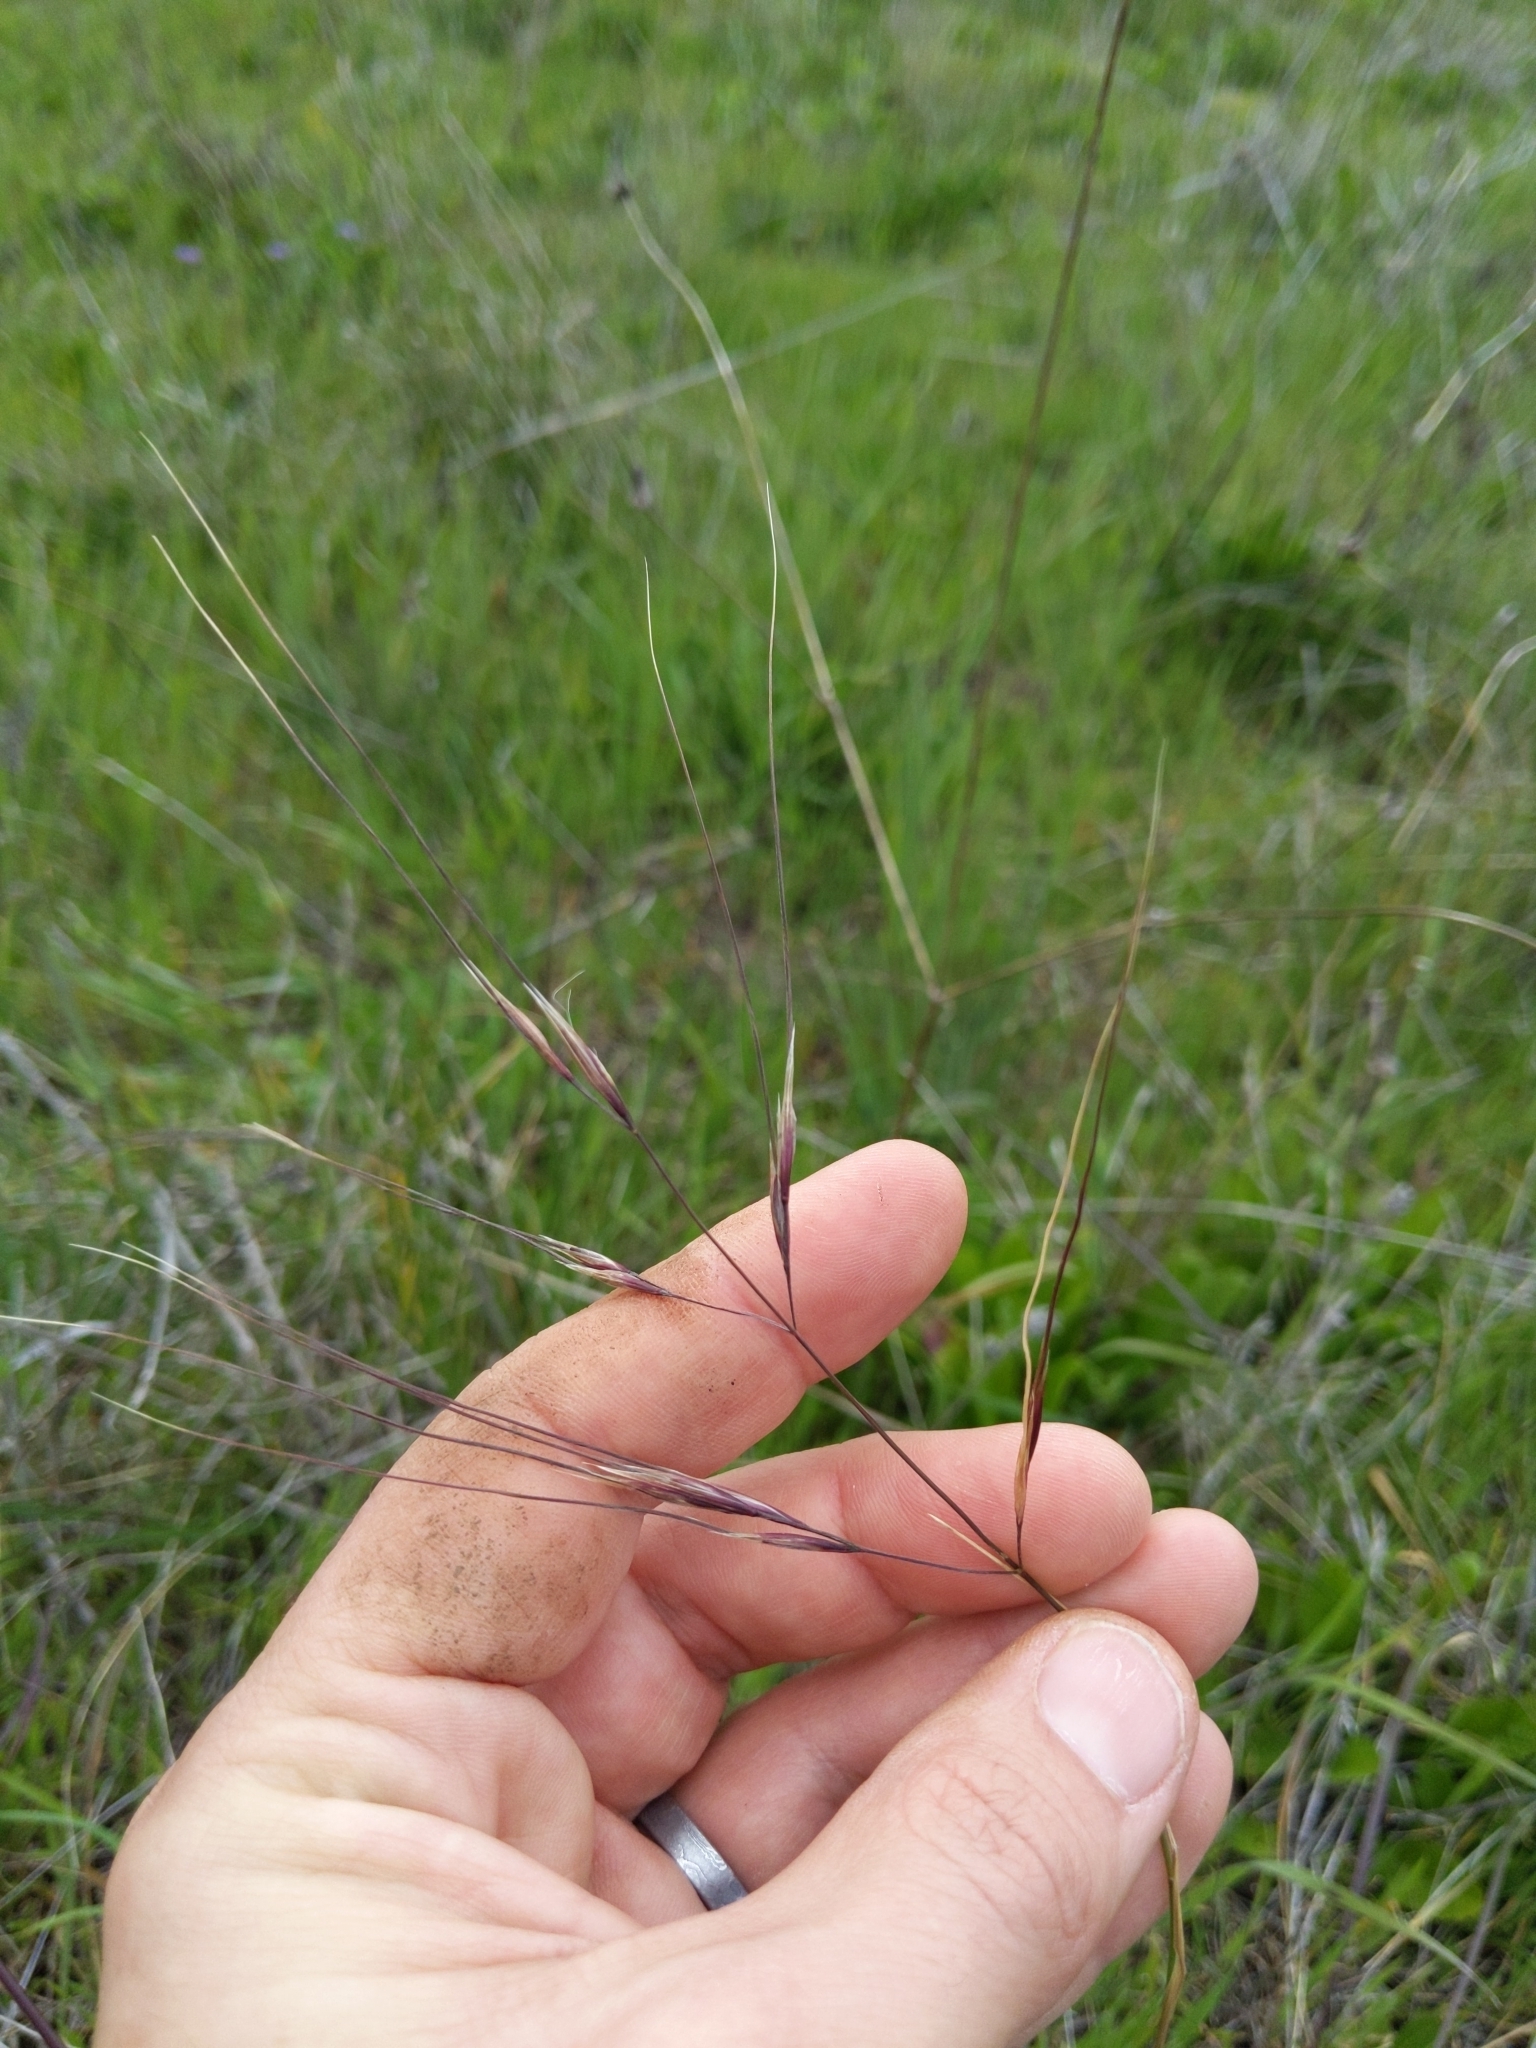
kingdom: Plantae
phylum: Tracheophyta
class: Liliopsida
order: Poales
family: Poaceae
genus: Nassella
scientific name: Nassella pulchra
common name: Purple needlegrass
